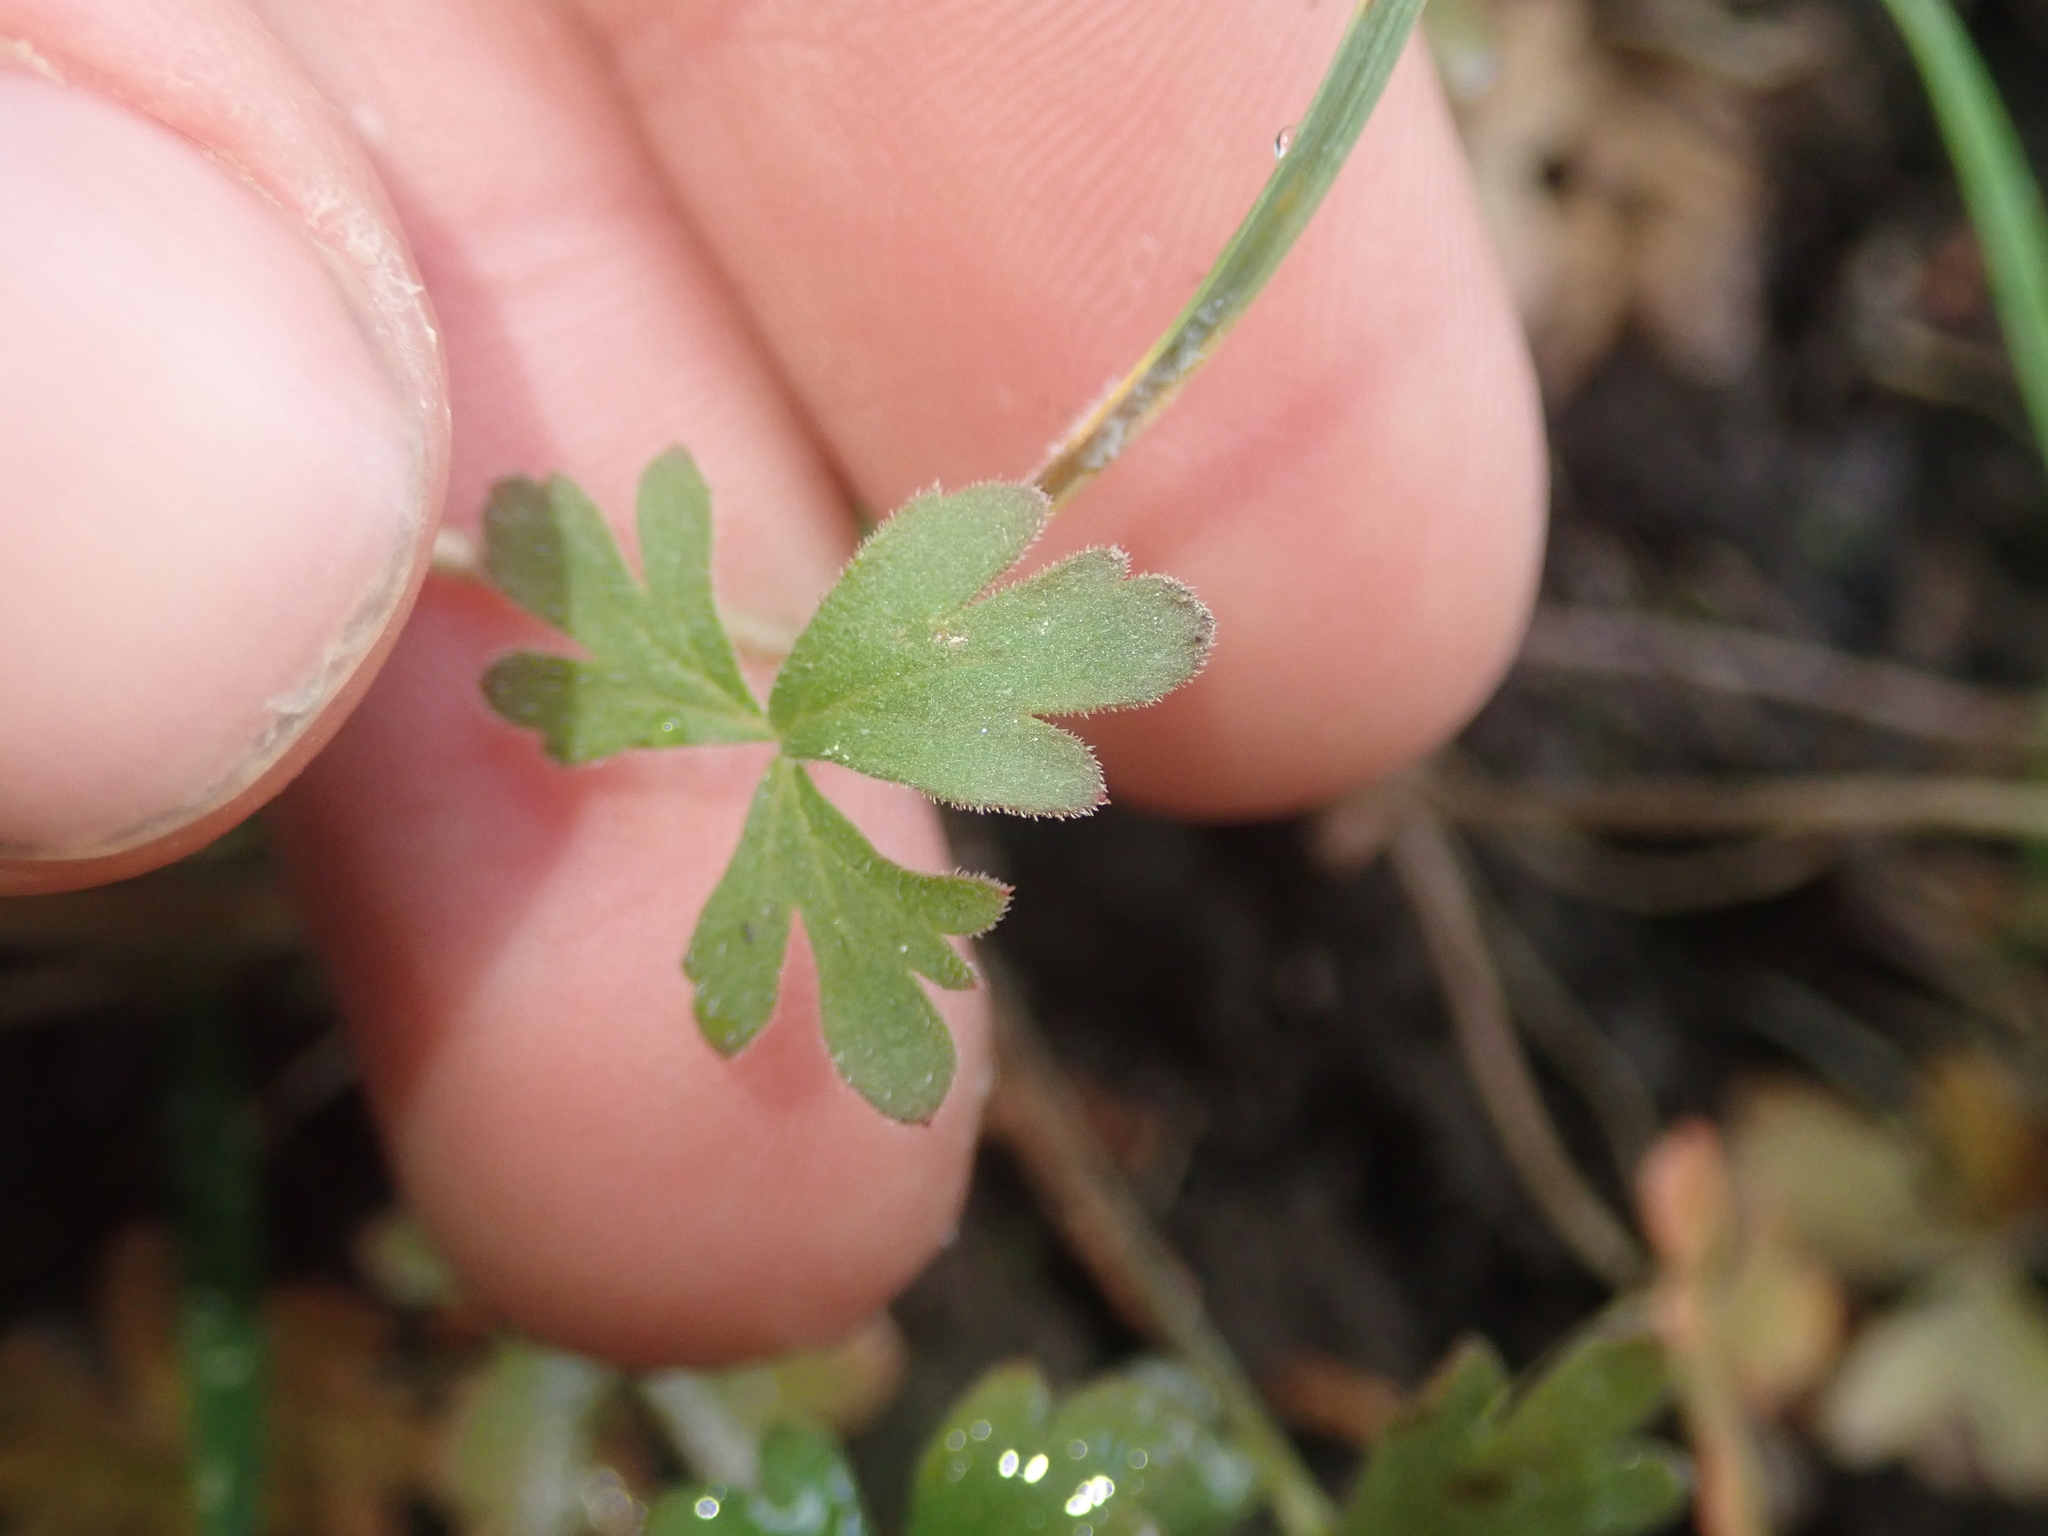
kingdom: Plantae
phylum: Tracheophyta
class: Magnoliopsida
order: Saxifragales
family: Saxifragaceae
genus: Lithophragma
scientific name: Lithophragma parviflorum
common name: Small-flowered fringe-cup
